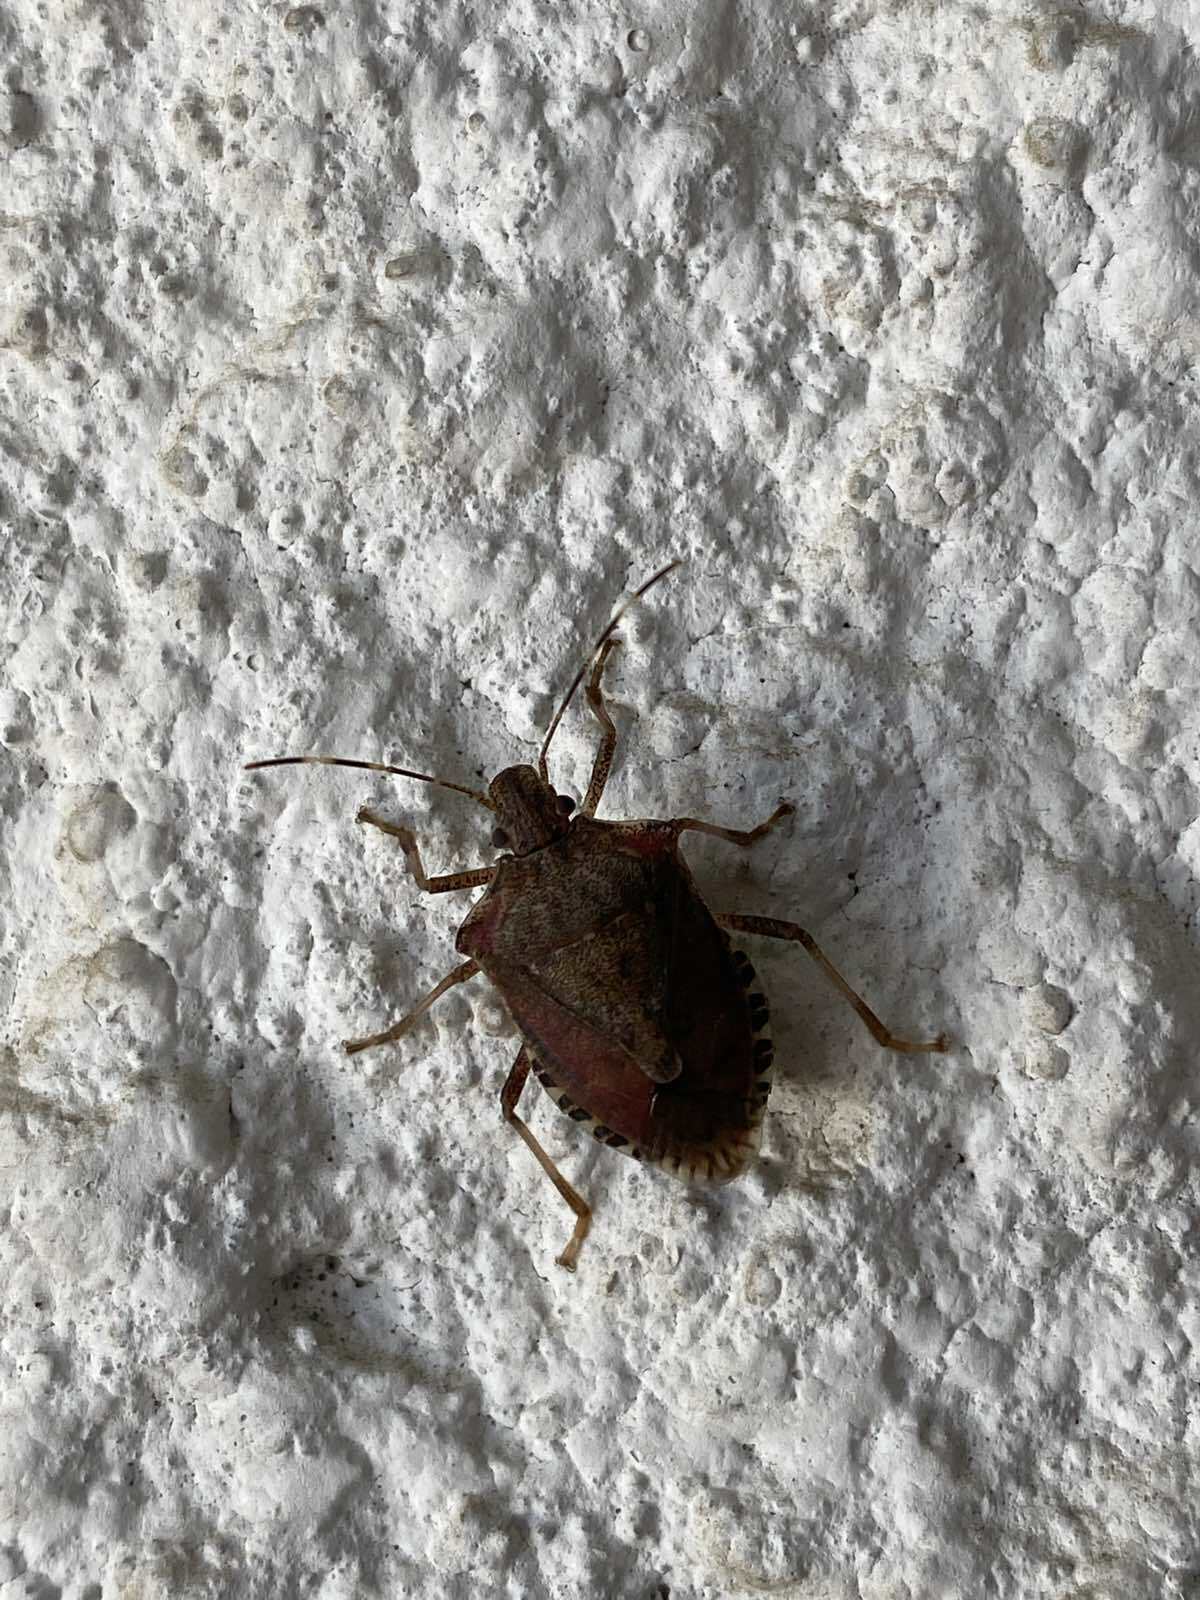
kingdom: Animalia
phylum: Arthropoda
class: Insecta
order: Hemiptera
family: Pentatomidae
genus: Halyomorpha
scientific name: Halyomorpha halys
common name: Brown marmorated stink bug
